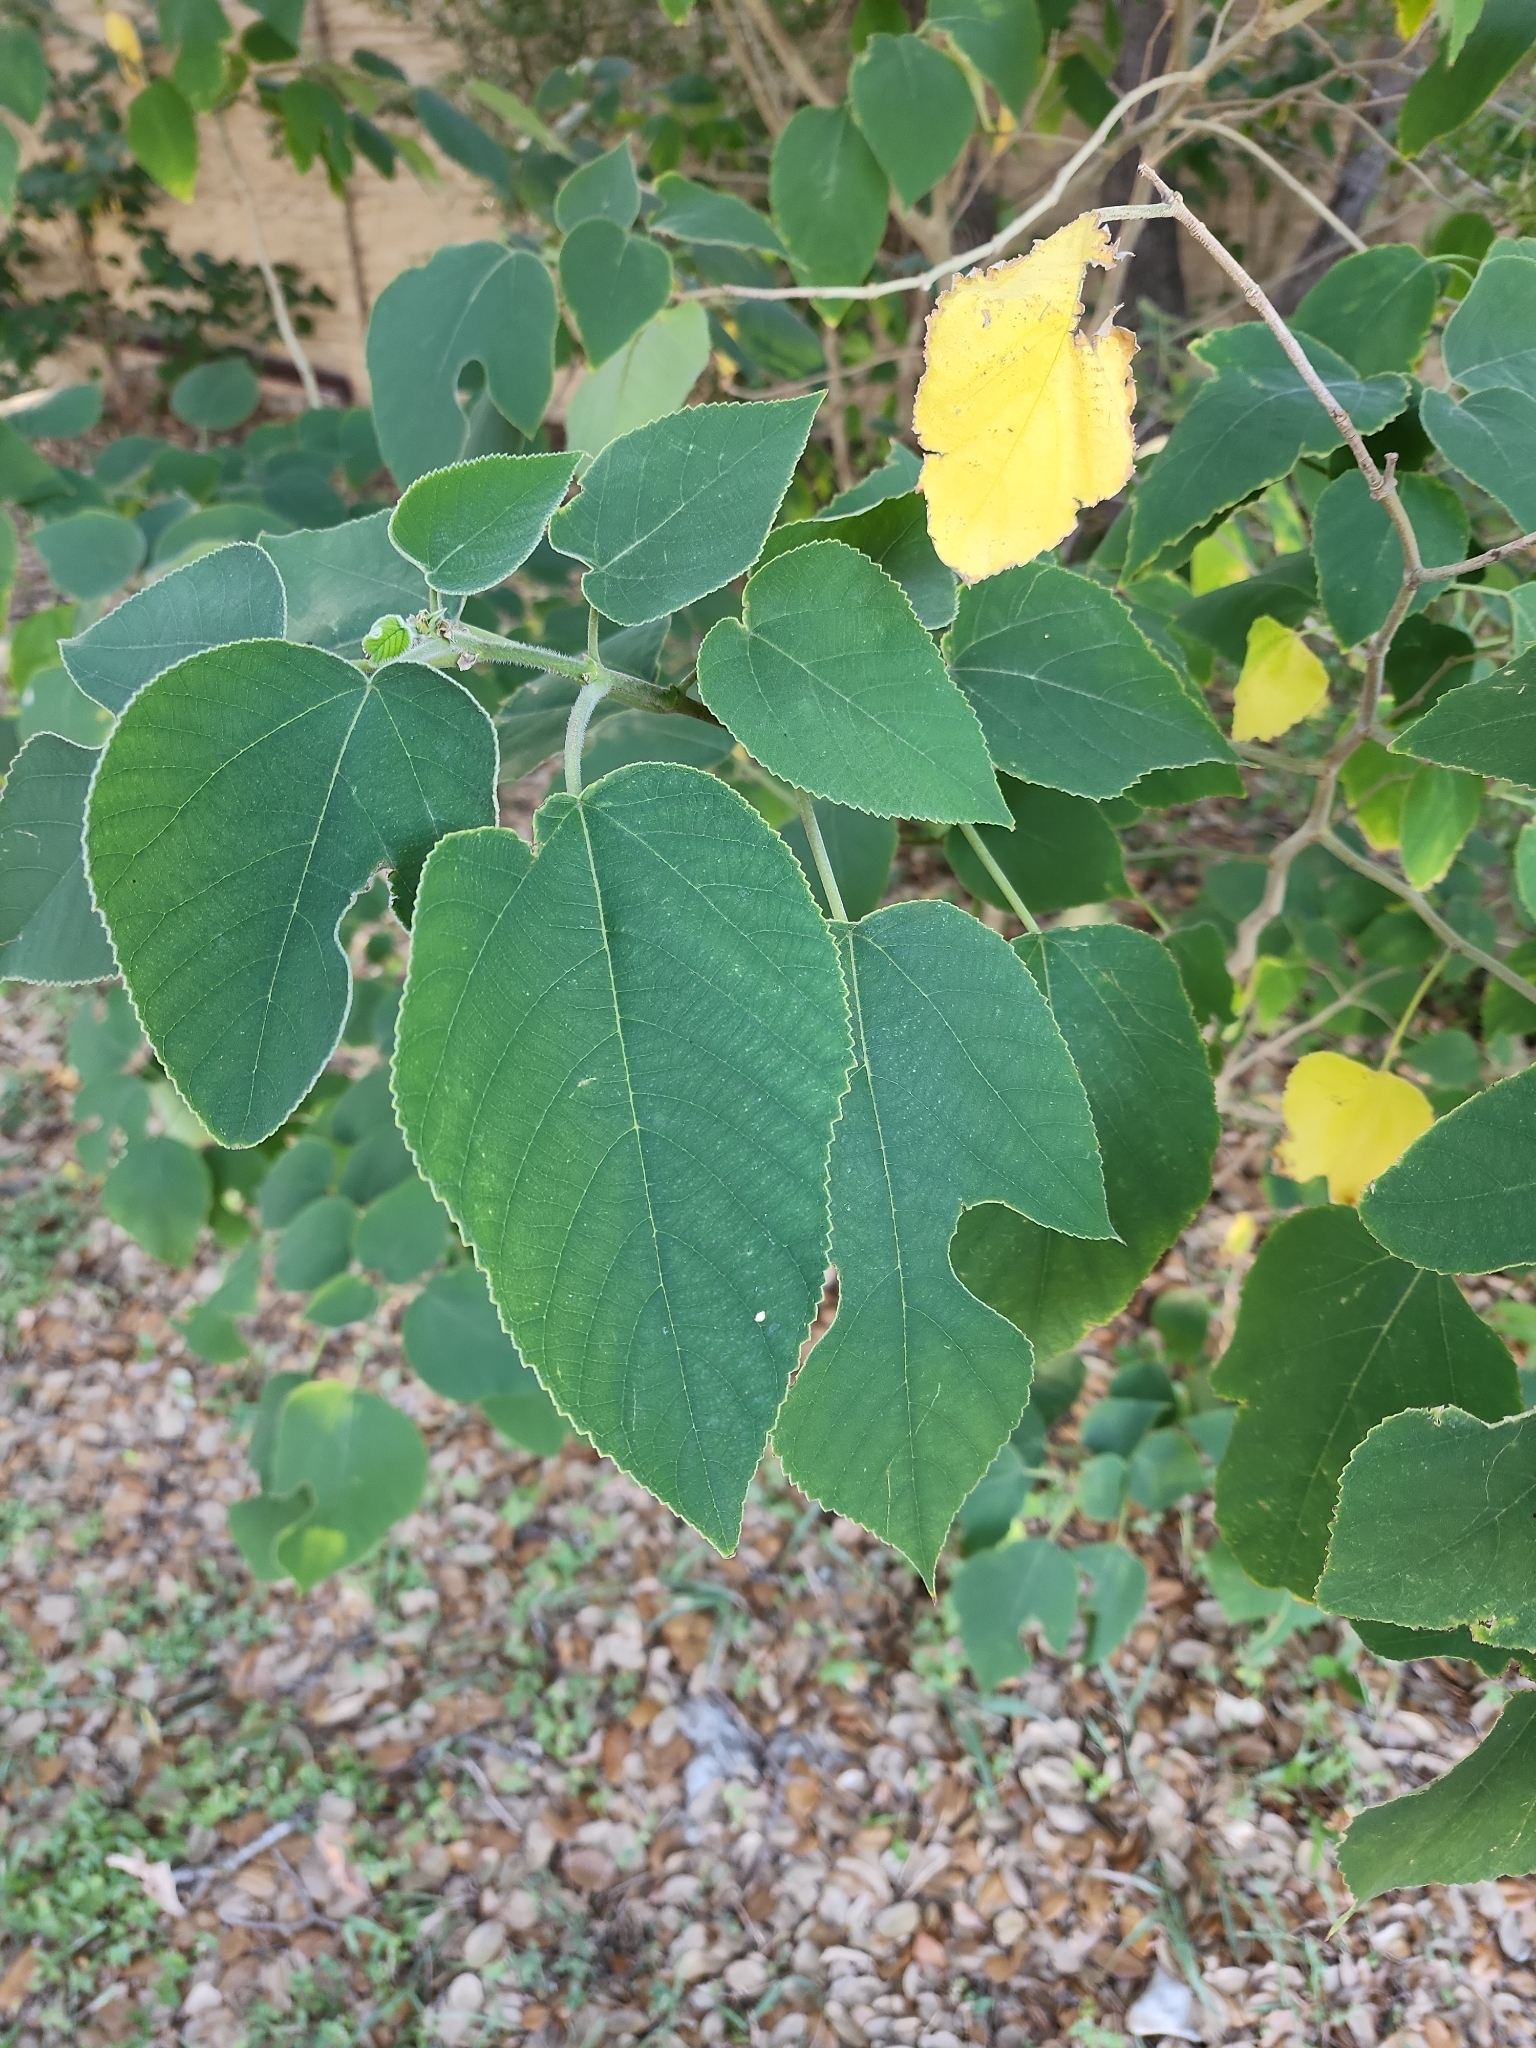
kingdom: Plantae
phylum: Tracheophyta
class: Magnoliopsida
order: Rosales
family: Moraceae
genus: Broussonetia
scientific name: Broussonetia papyrifera
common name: Paper mulberry
